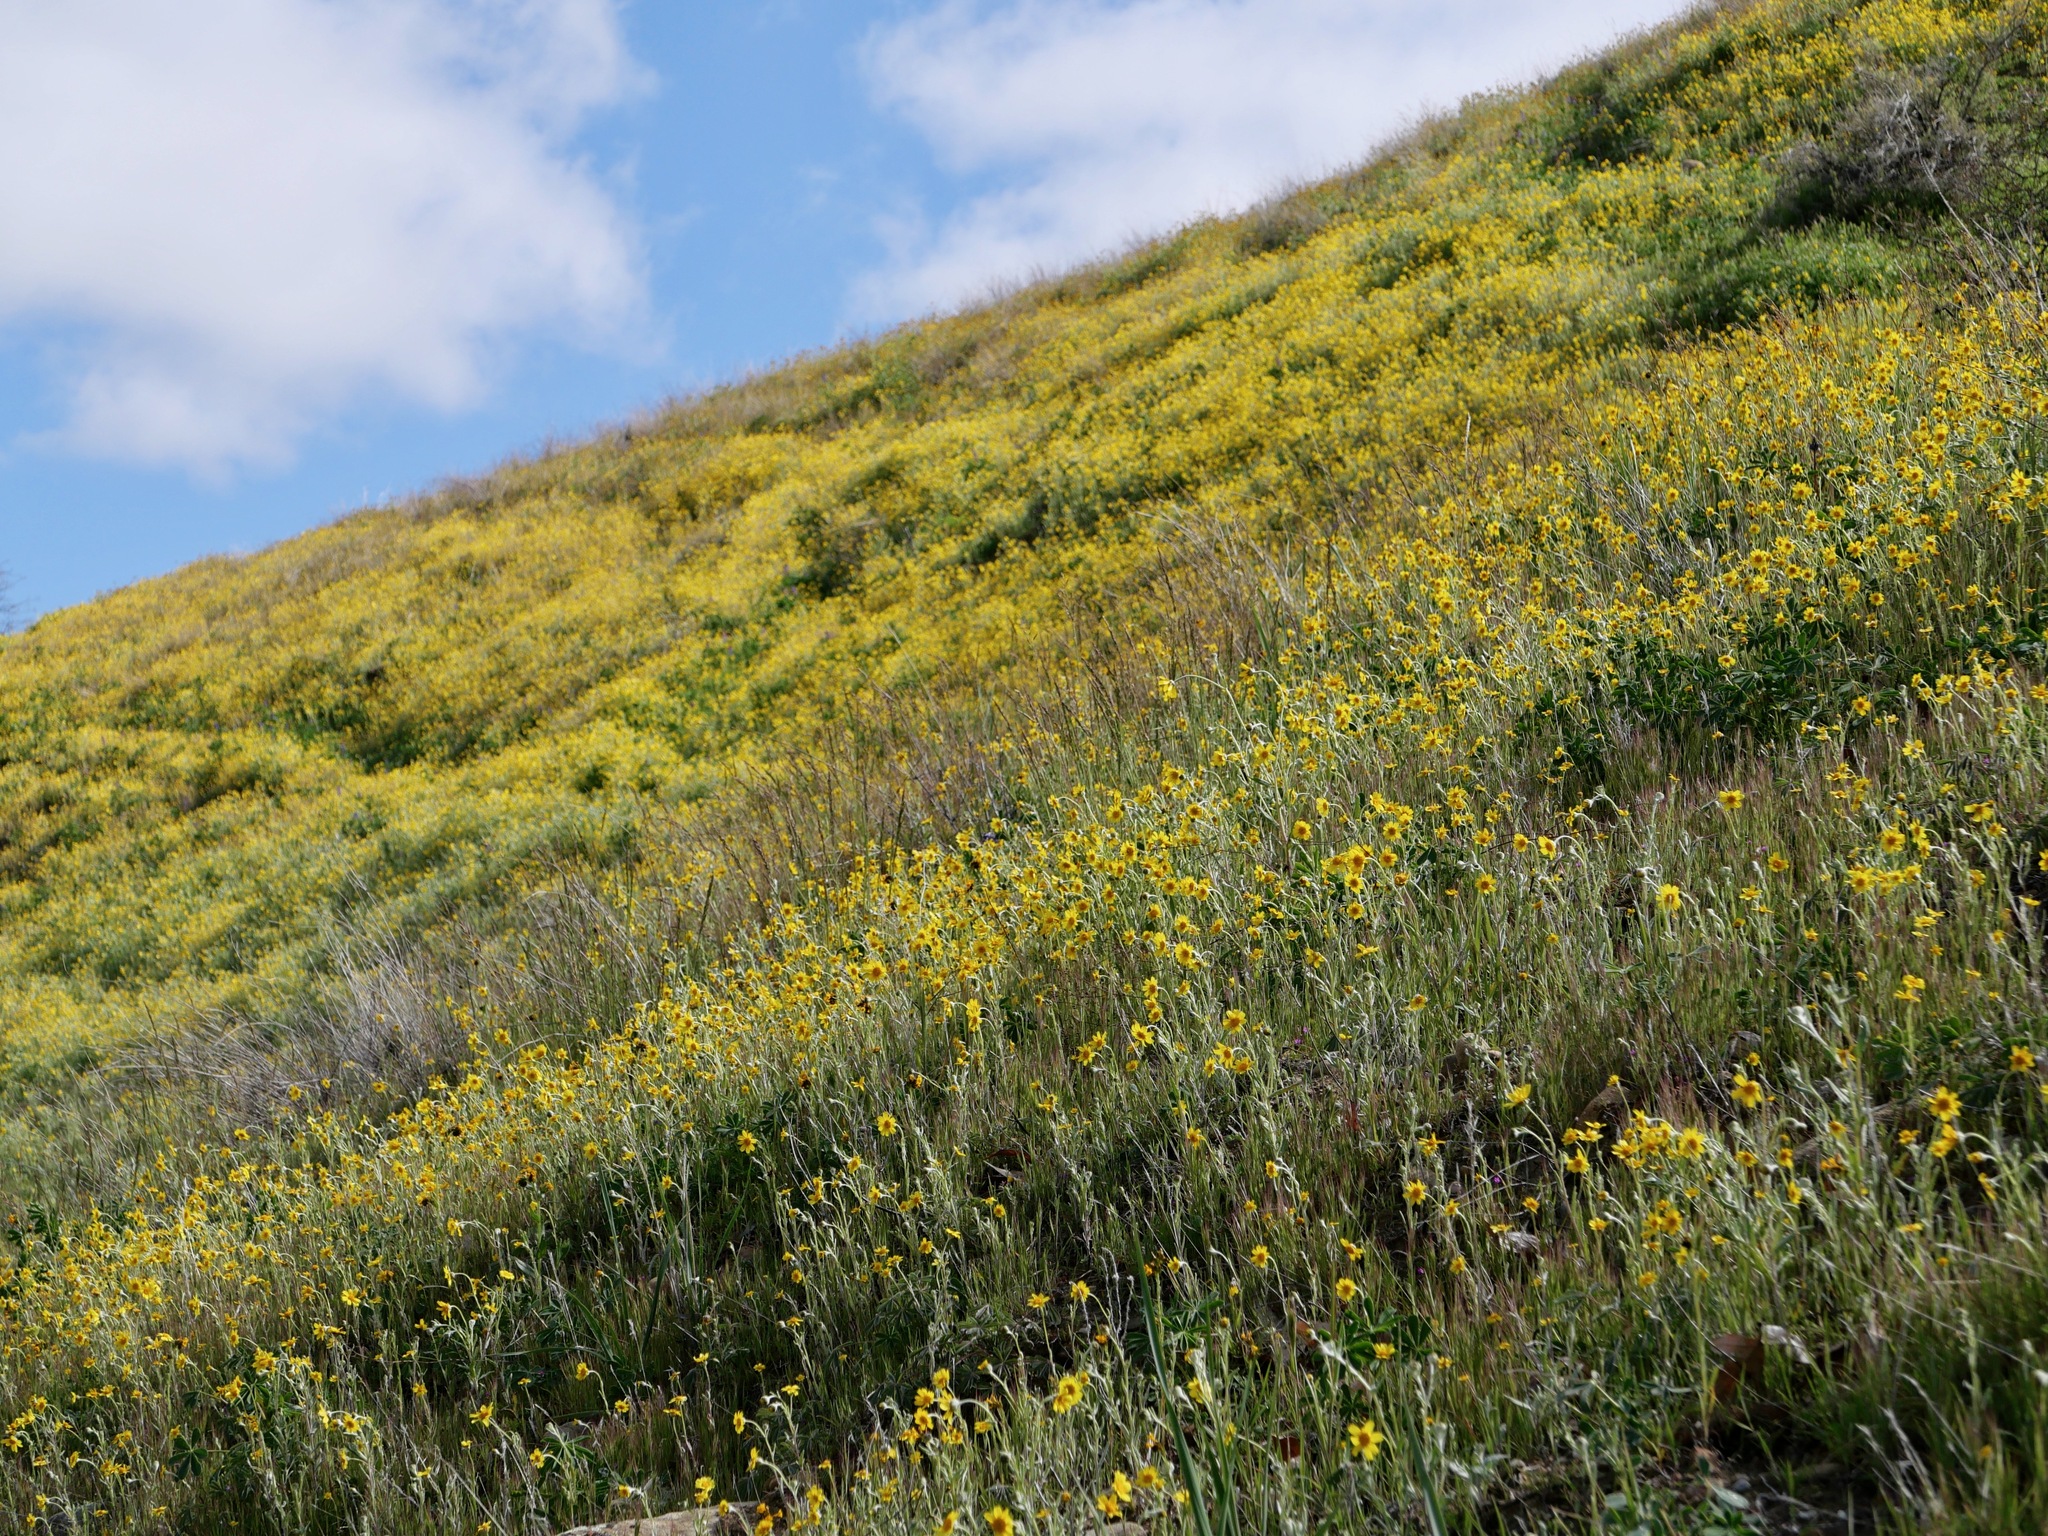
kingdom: Plantae
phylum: Tracheophyta
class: Magnoliopsida
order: Asterales
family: Asteraceae
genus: Monolopia
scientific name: Monolopia lanceolata
